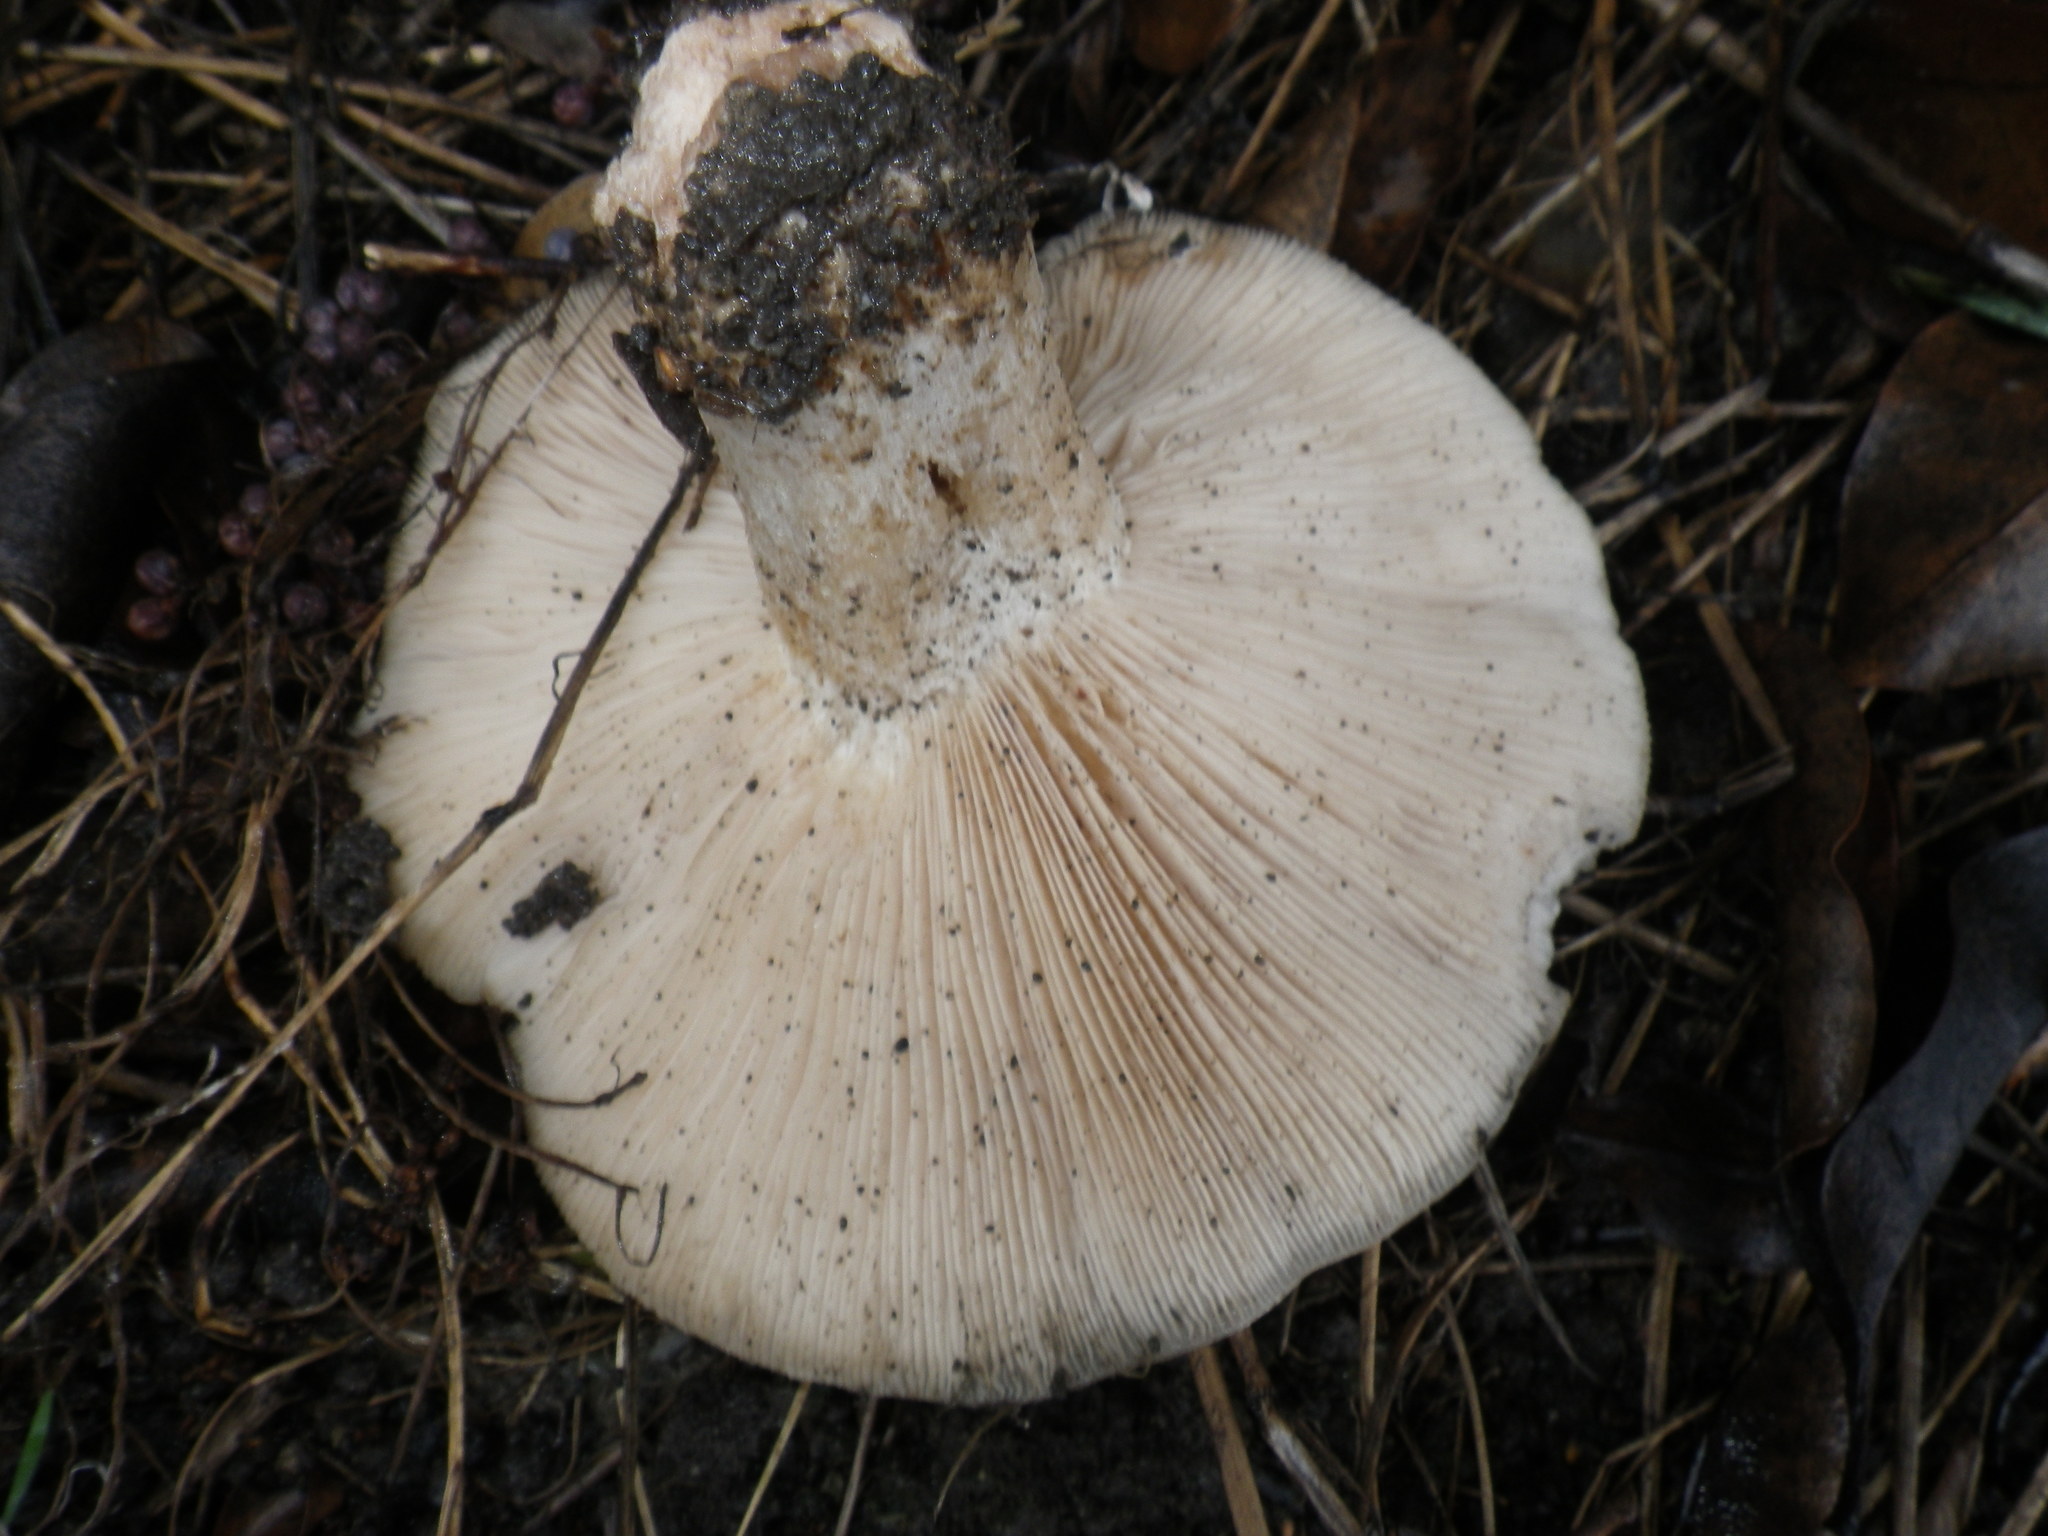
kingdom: Fungi
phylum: Basidiomycota
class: Agaricomycetes
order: Agaricales
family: Tricholomataceae
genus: Collybia
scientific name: Collybia
